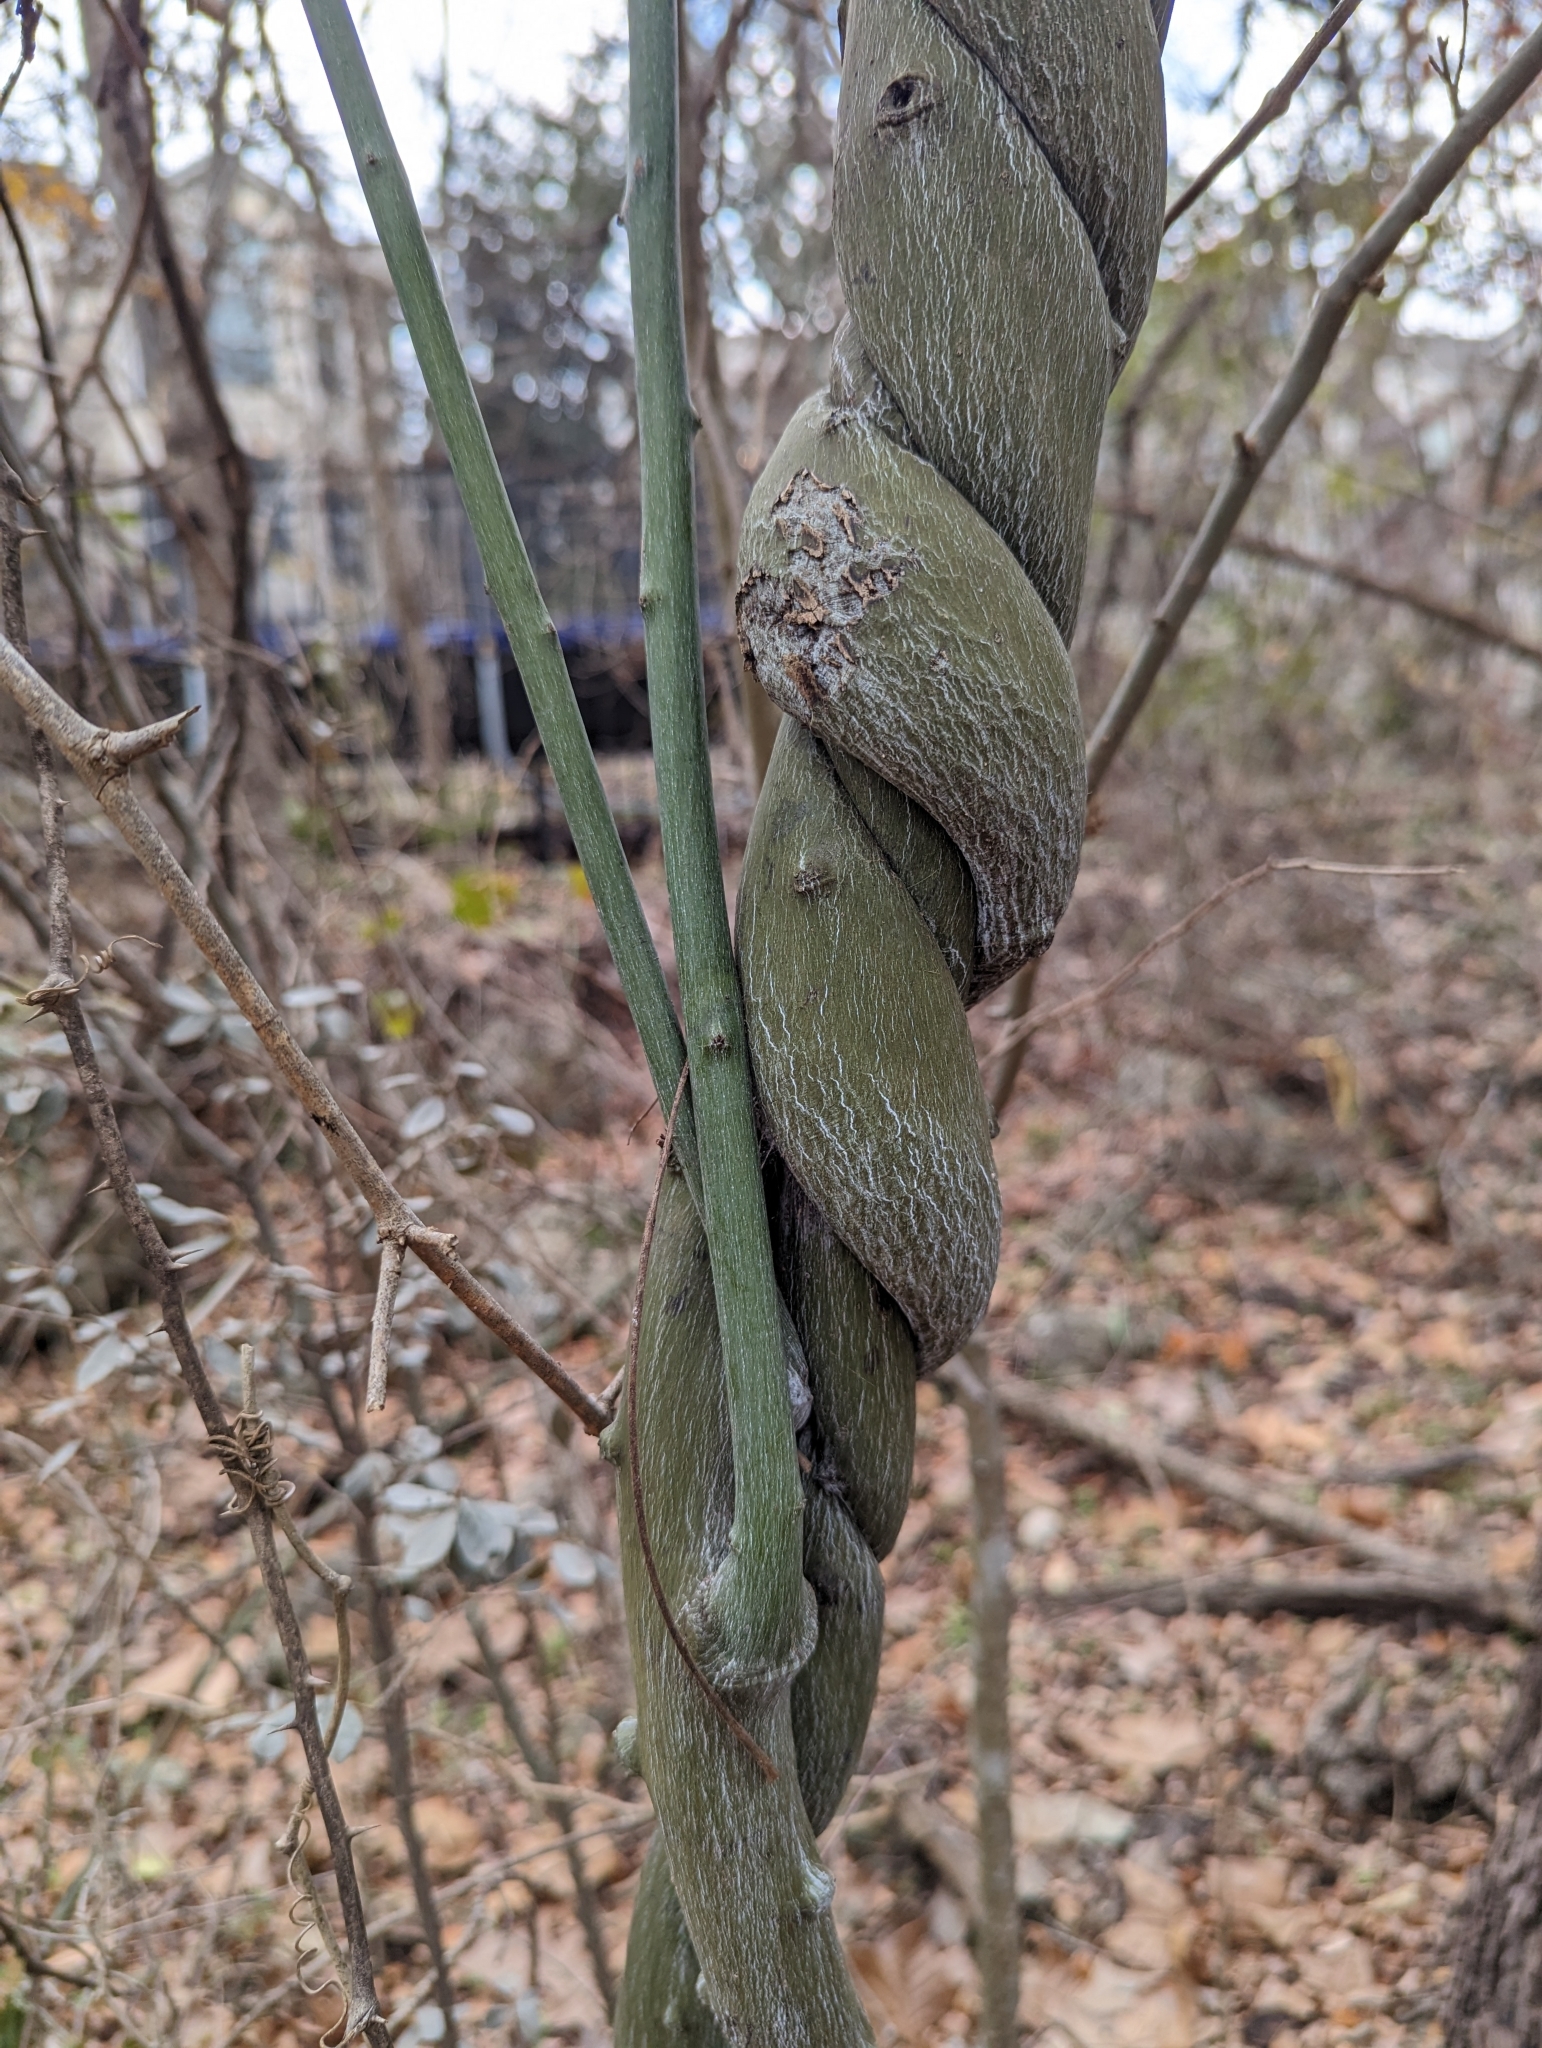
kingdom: Plantae
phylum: Tracheophyta
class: Magnoliopsida
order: Rosales
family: Rhamnaceae
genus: Berchemia
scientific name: Berchemia scandens
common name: Supplejack
